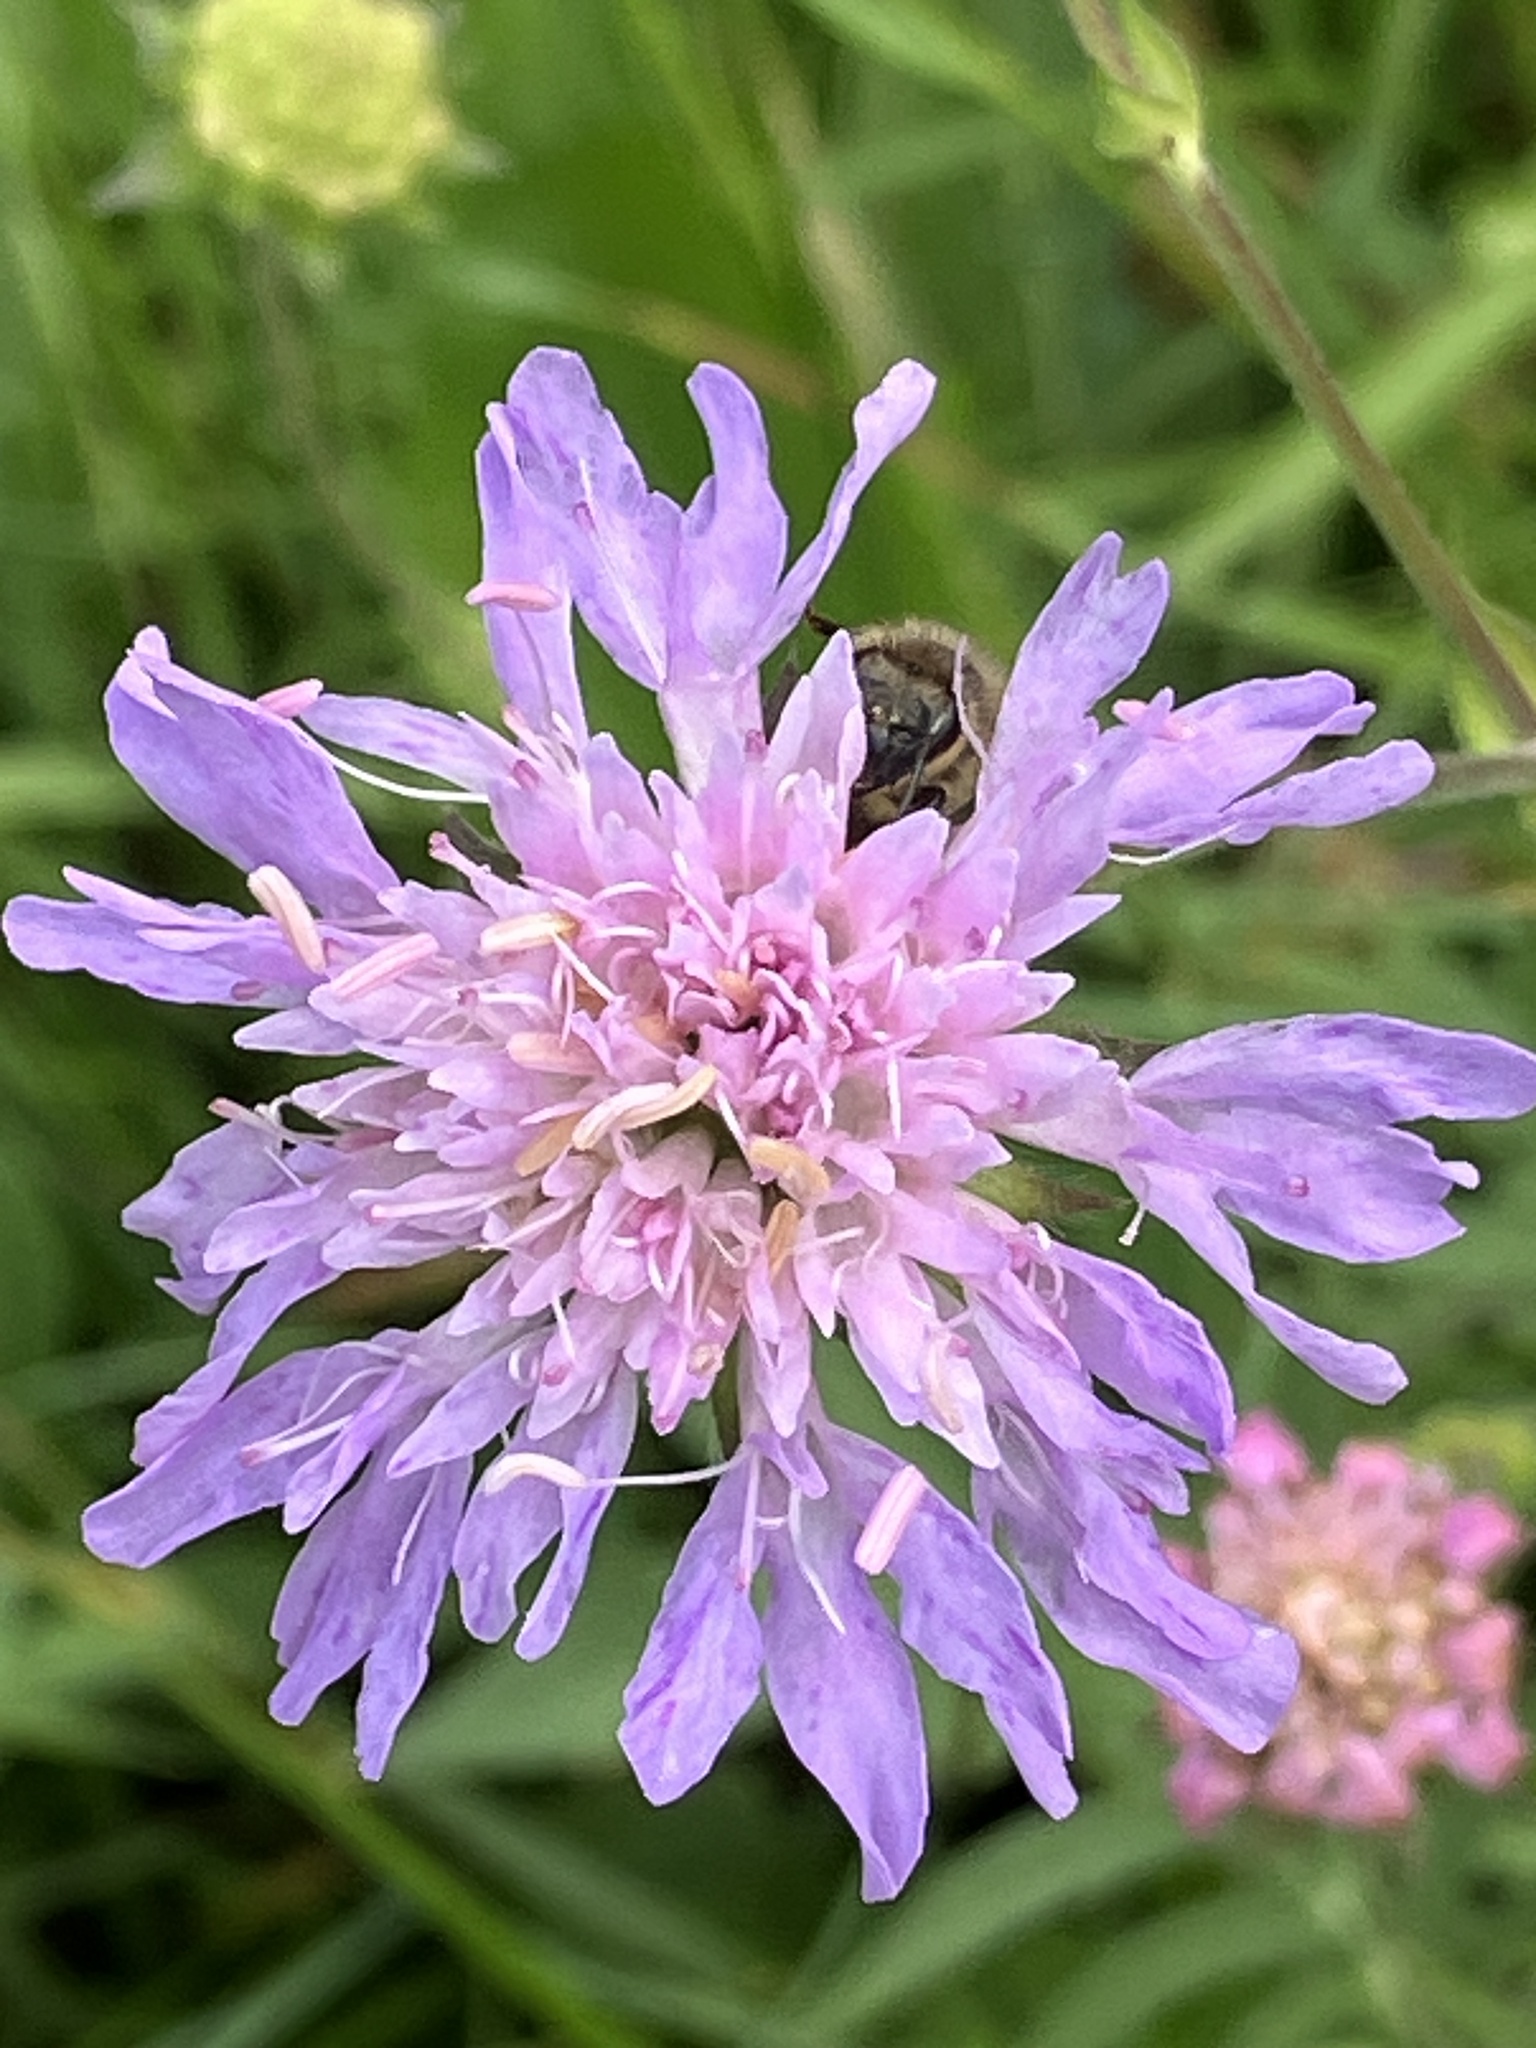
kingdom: Plantae
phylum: Tracheophyta
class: Magnoliopsida
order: Dipsacales
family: Caprifoliaceae
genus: Knautia
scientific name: Knautia arvensis
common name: Field scabiosa
